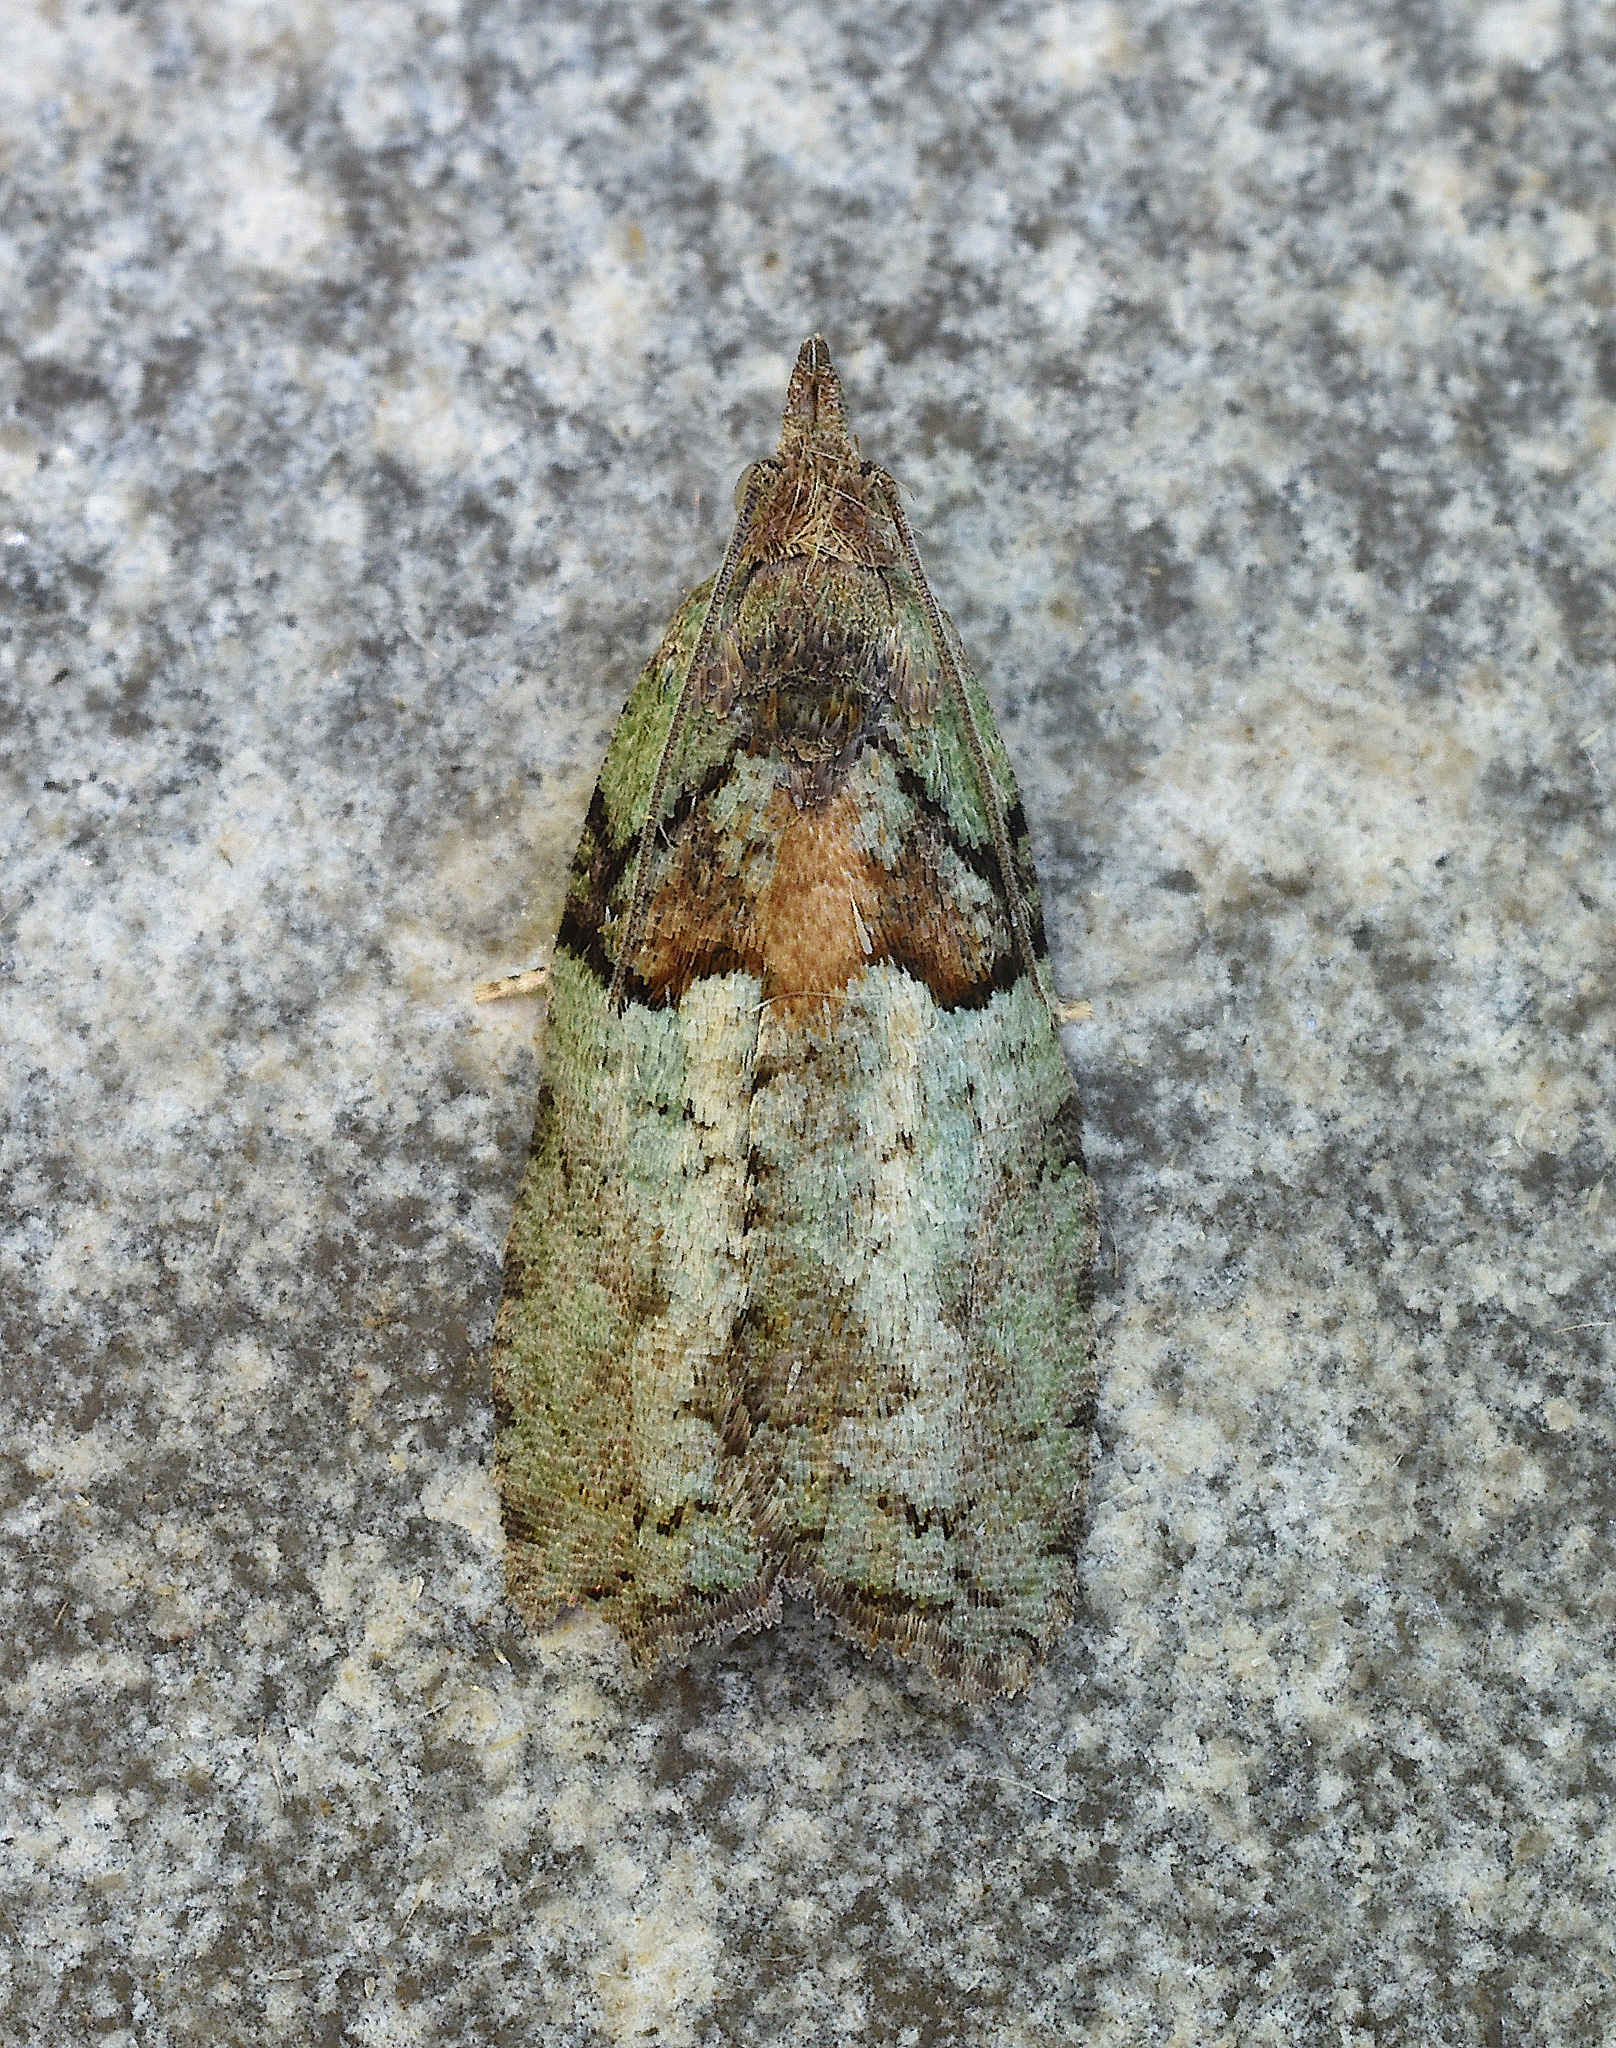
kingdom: Animalia
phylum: Arthropoda
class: Insecta
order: Lepidoptera
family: Tortricidae
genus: Epinotia
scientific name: Epinotia medioviridana
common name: Raspberry leaf-roller moth
